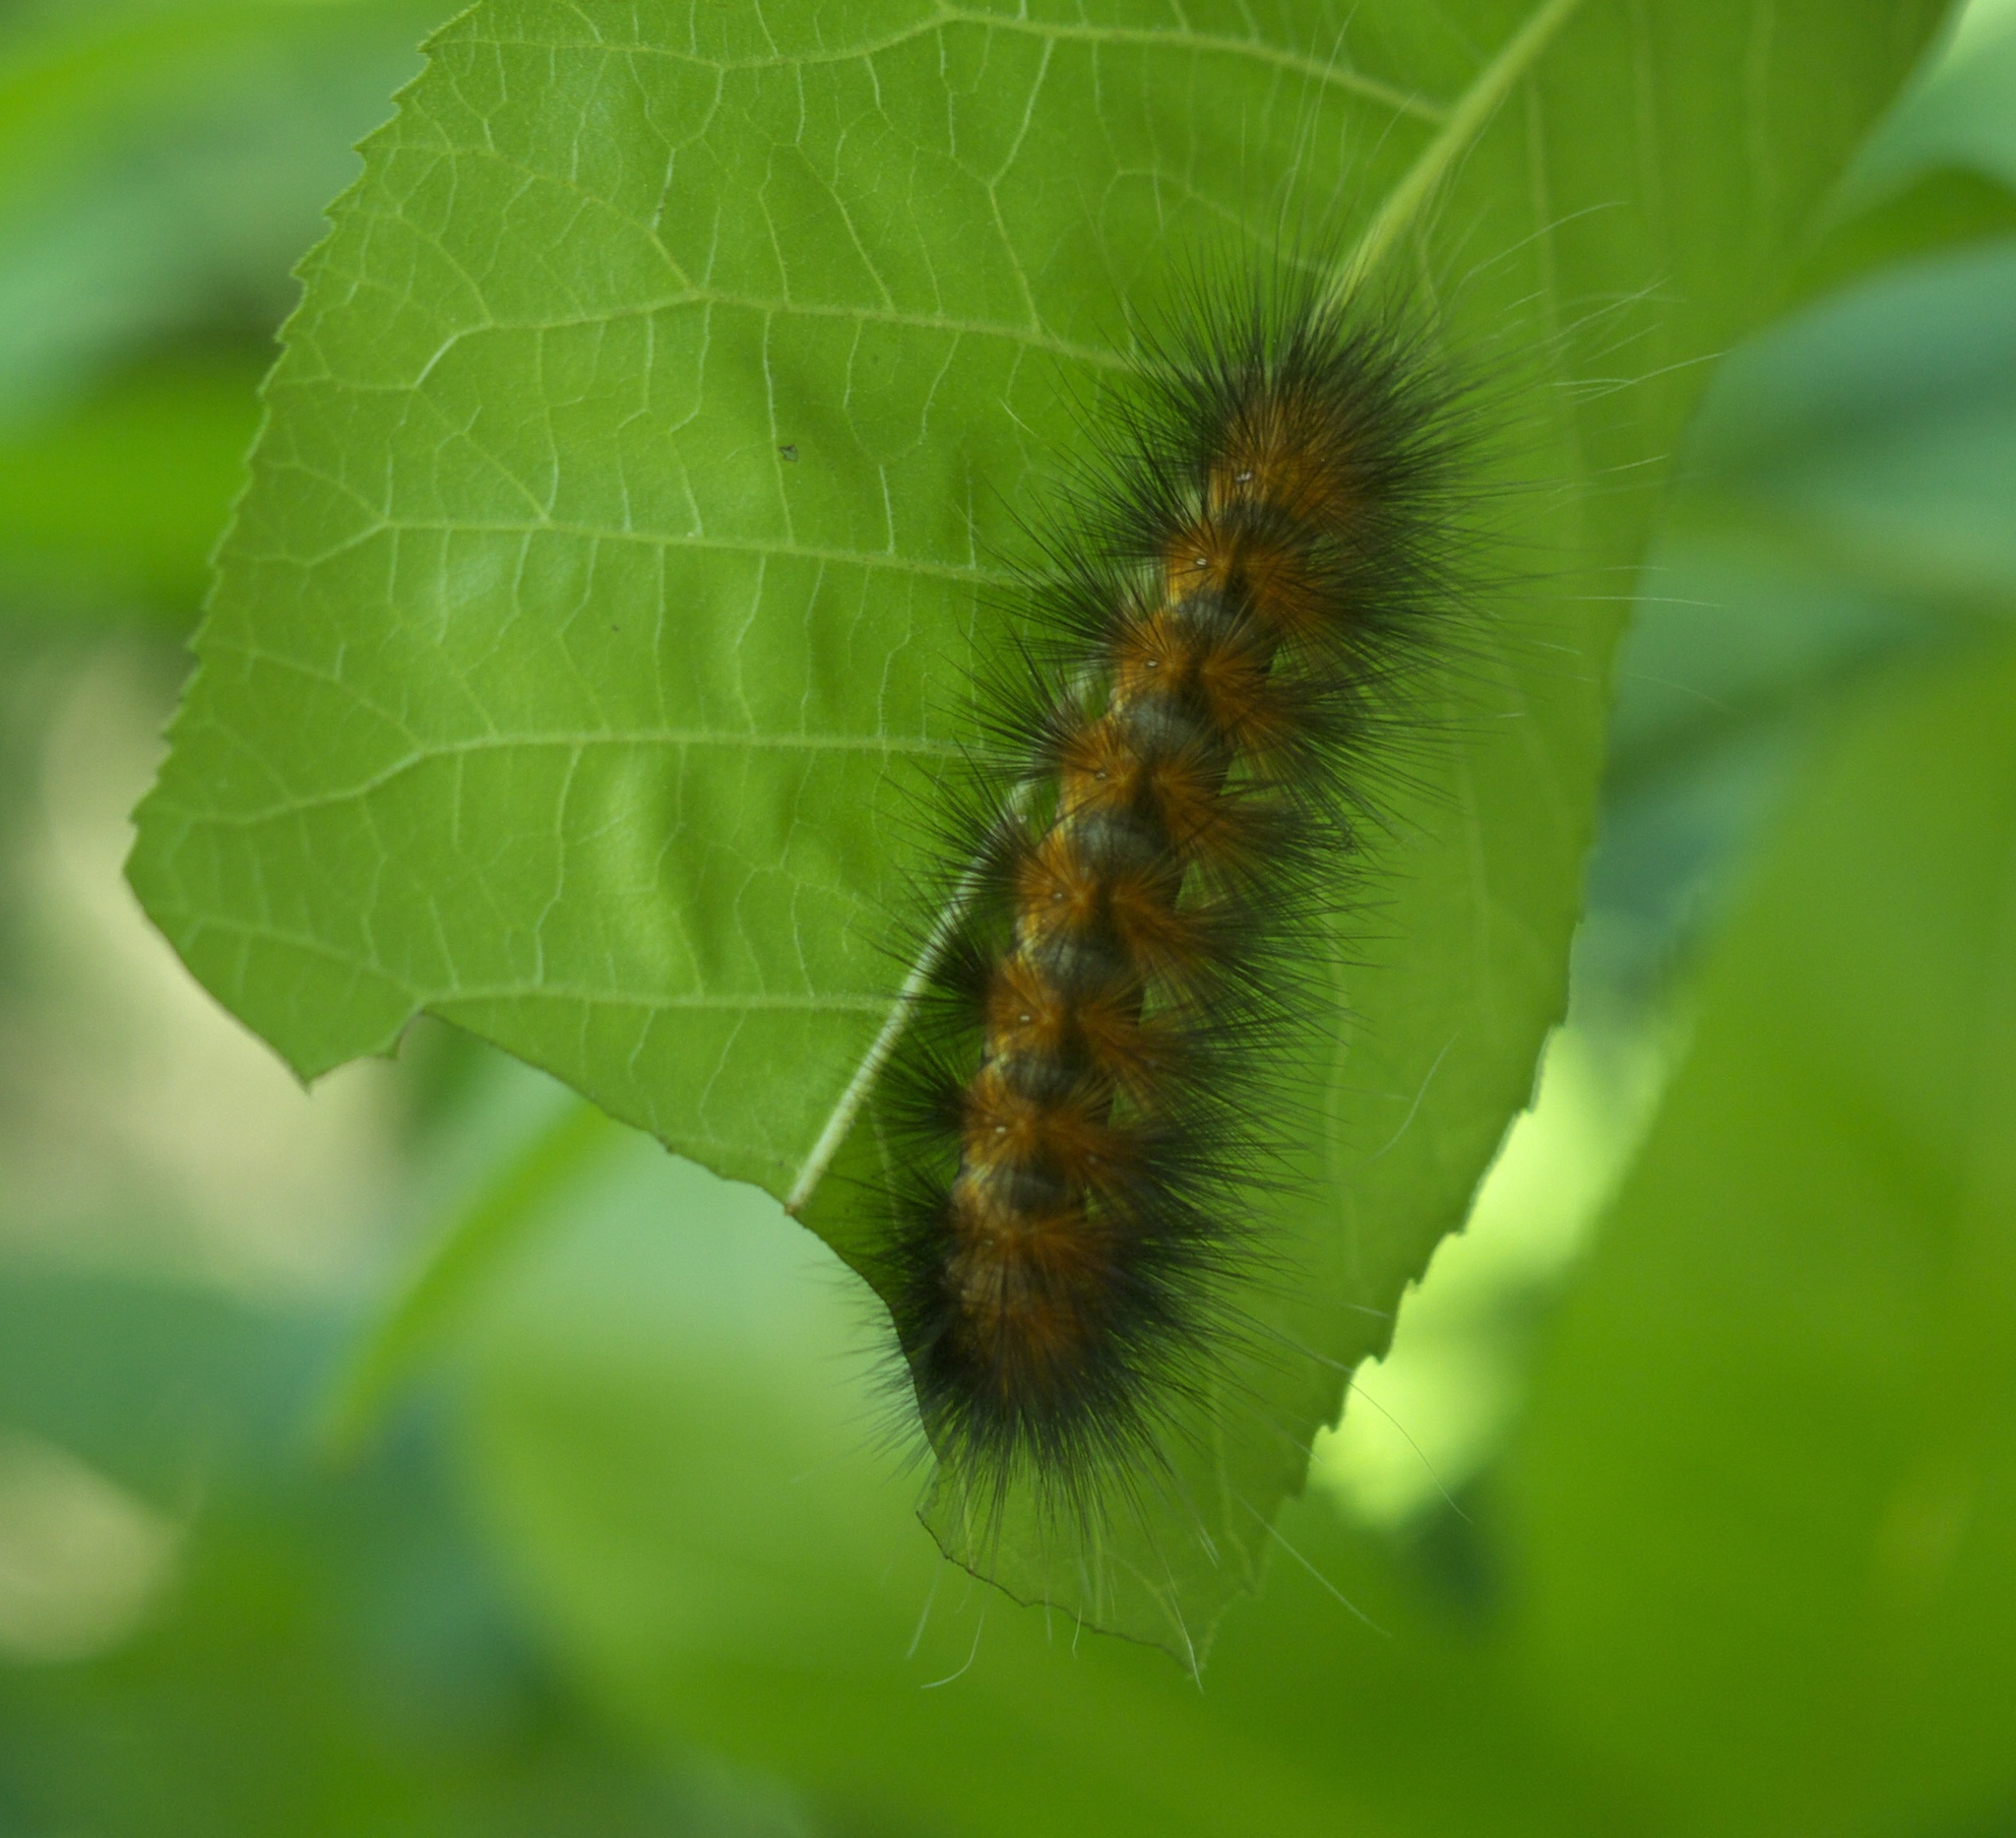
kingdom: Animalia
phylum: Arthropoda
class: Insecta
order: Lepidoptera
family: Erebidae
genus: Spilosoma
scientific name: Spilosoma virginica
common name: Virginia tiger moth
